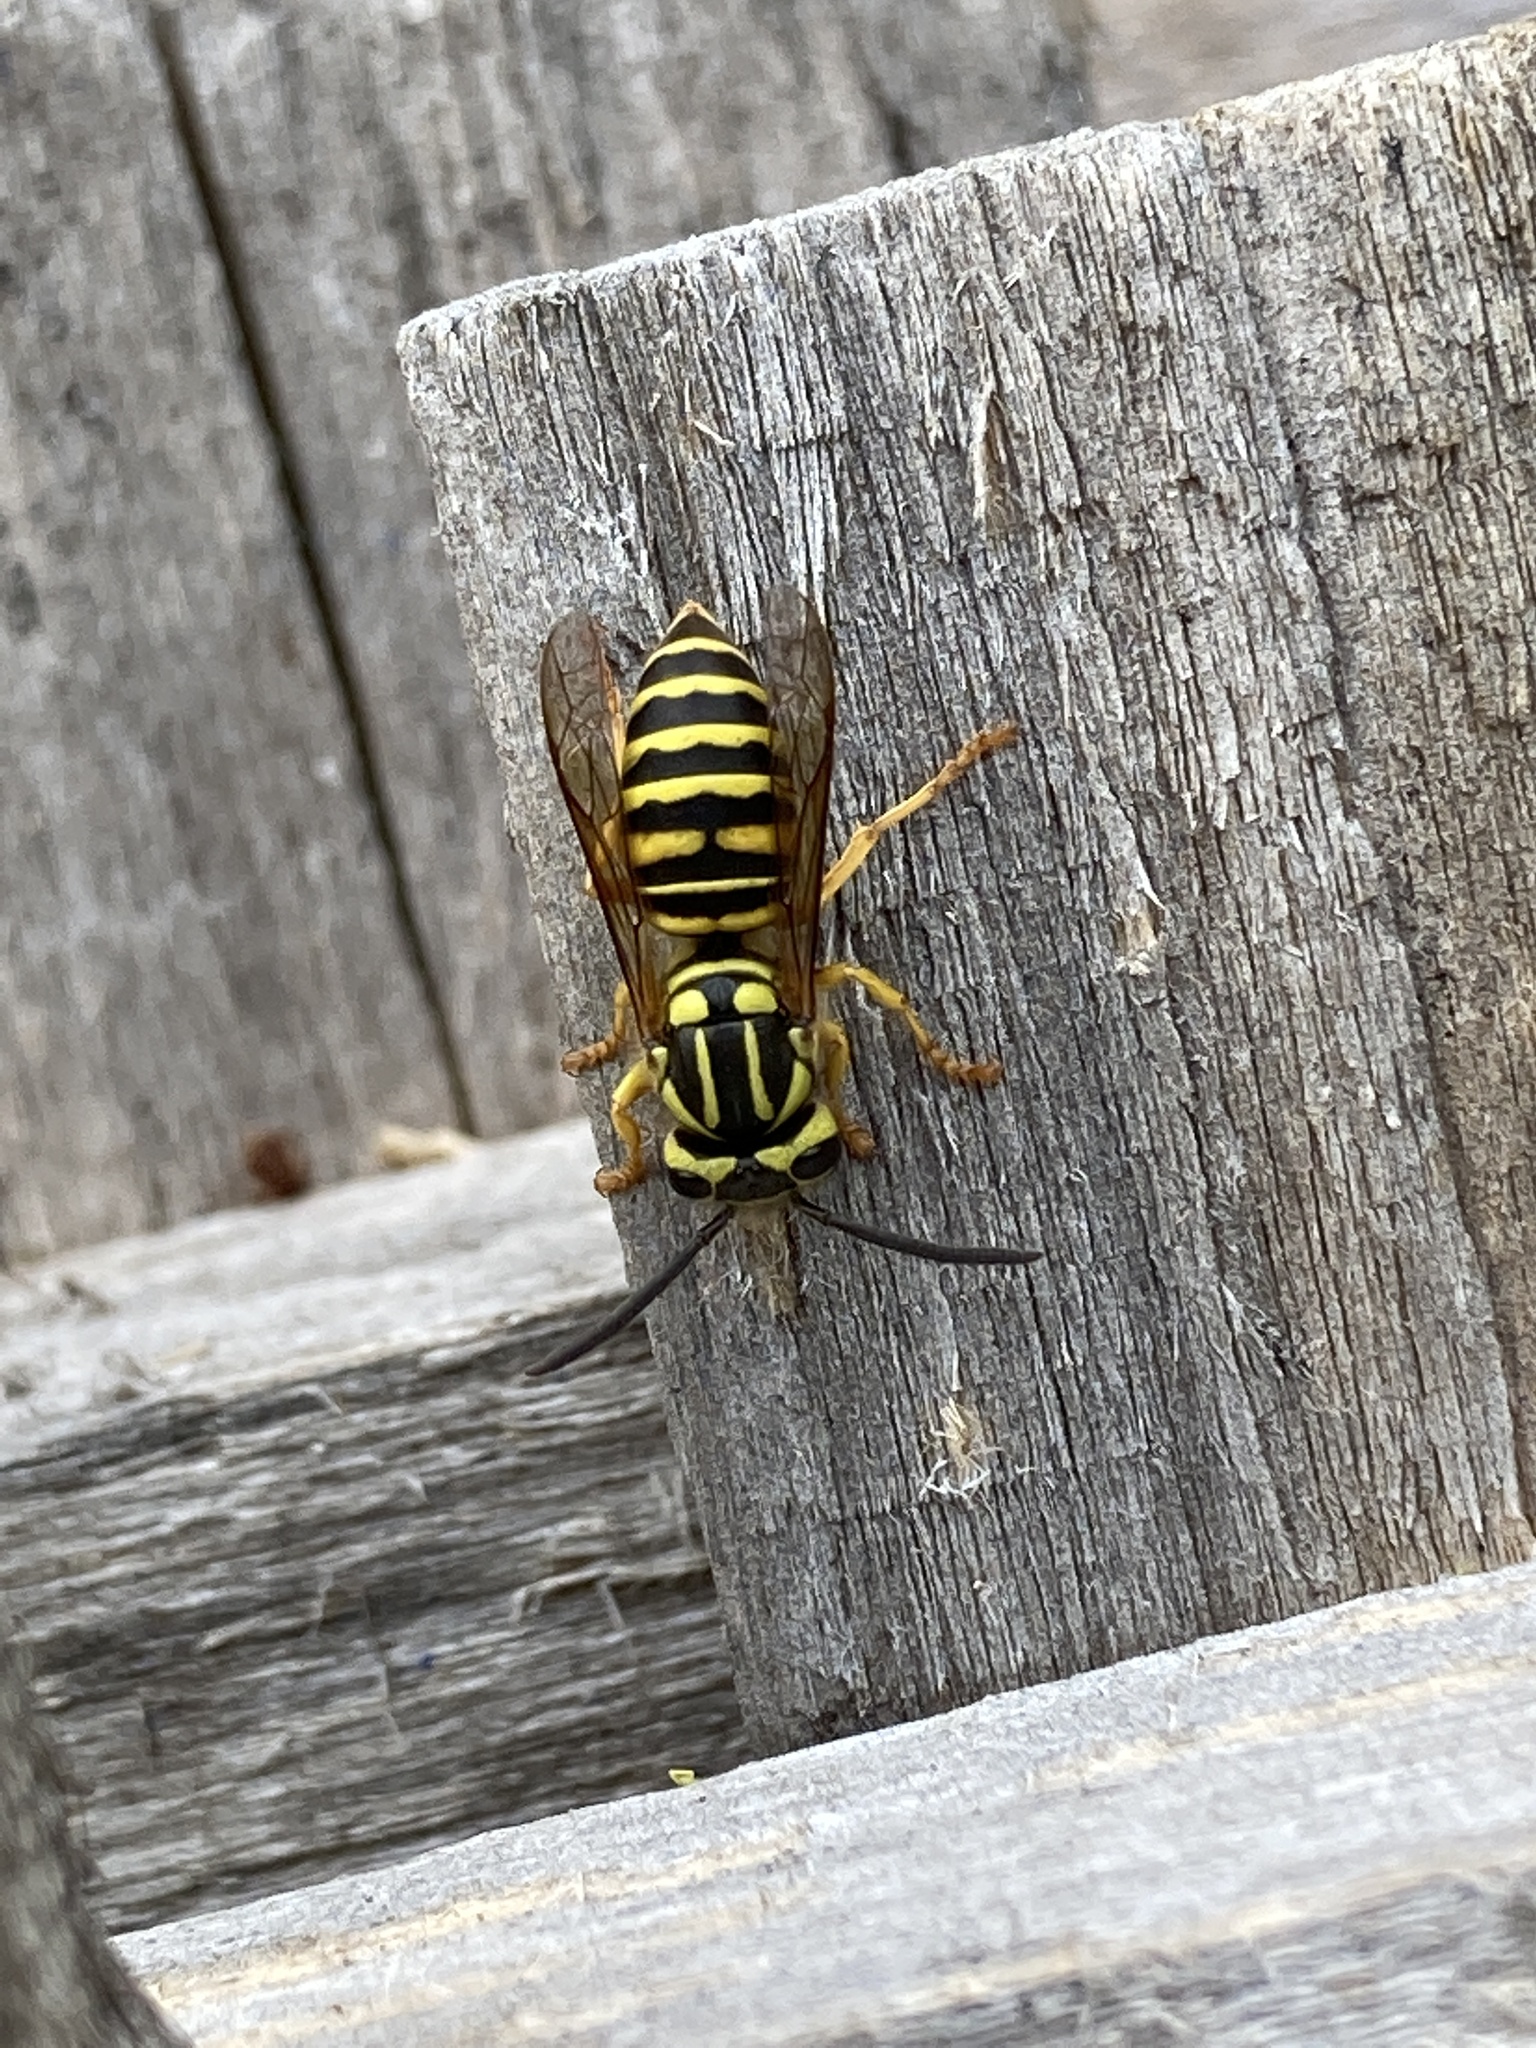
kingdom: Animalia
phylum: Arthropoda
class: Insecta
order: Hymenoptera
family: Vespidae
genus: Vespula
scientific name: Vespula squamosa
